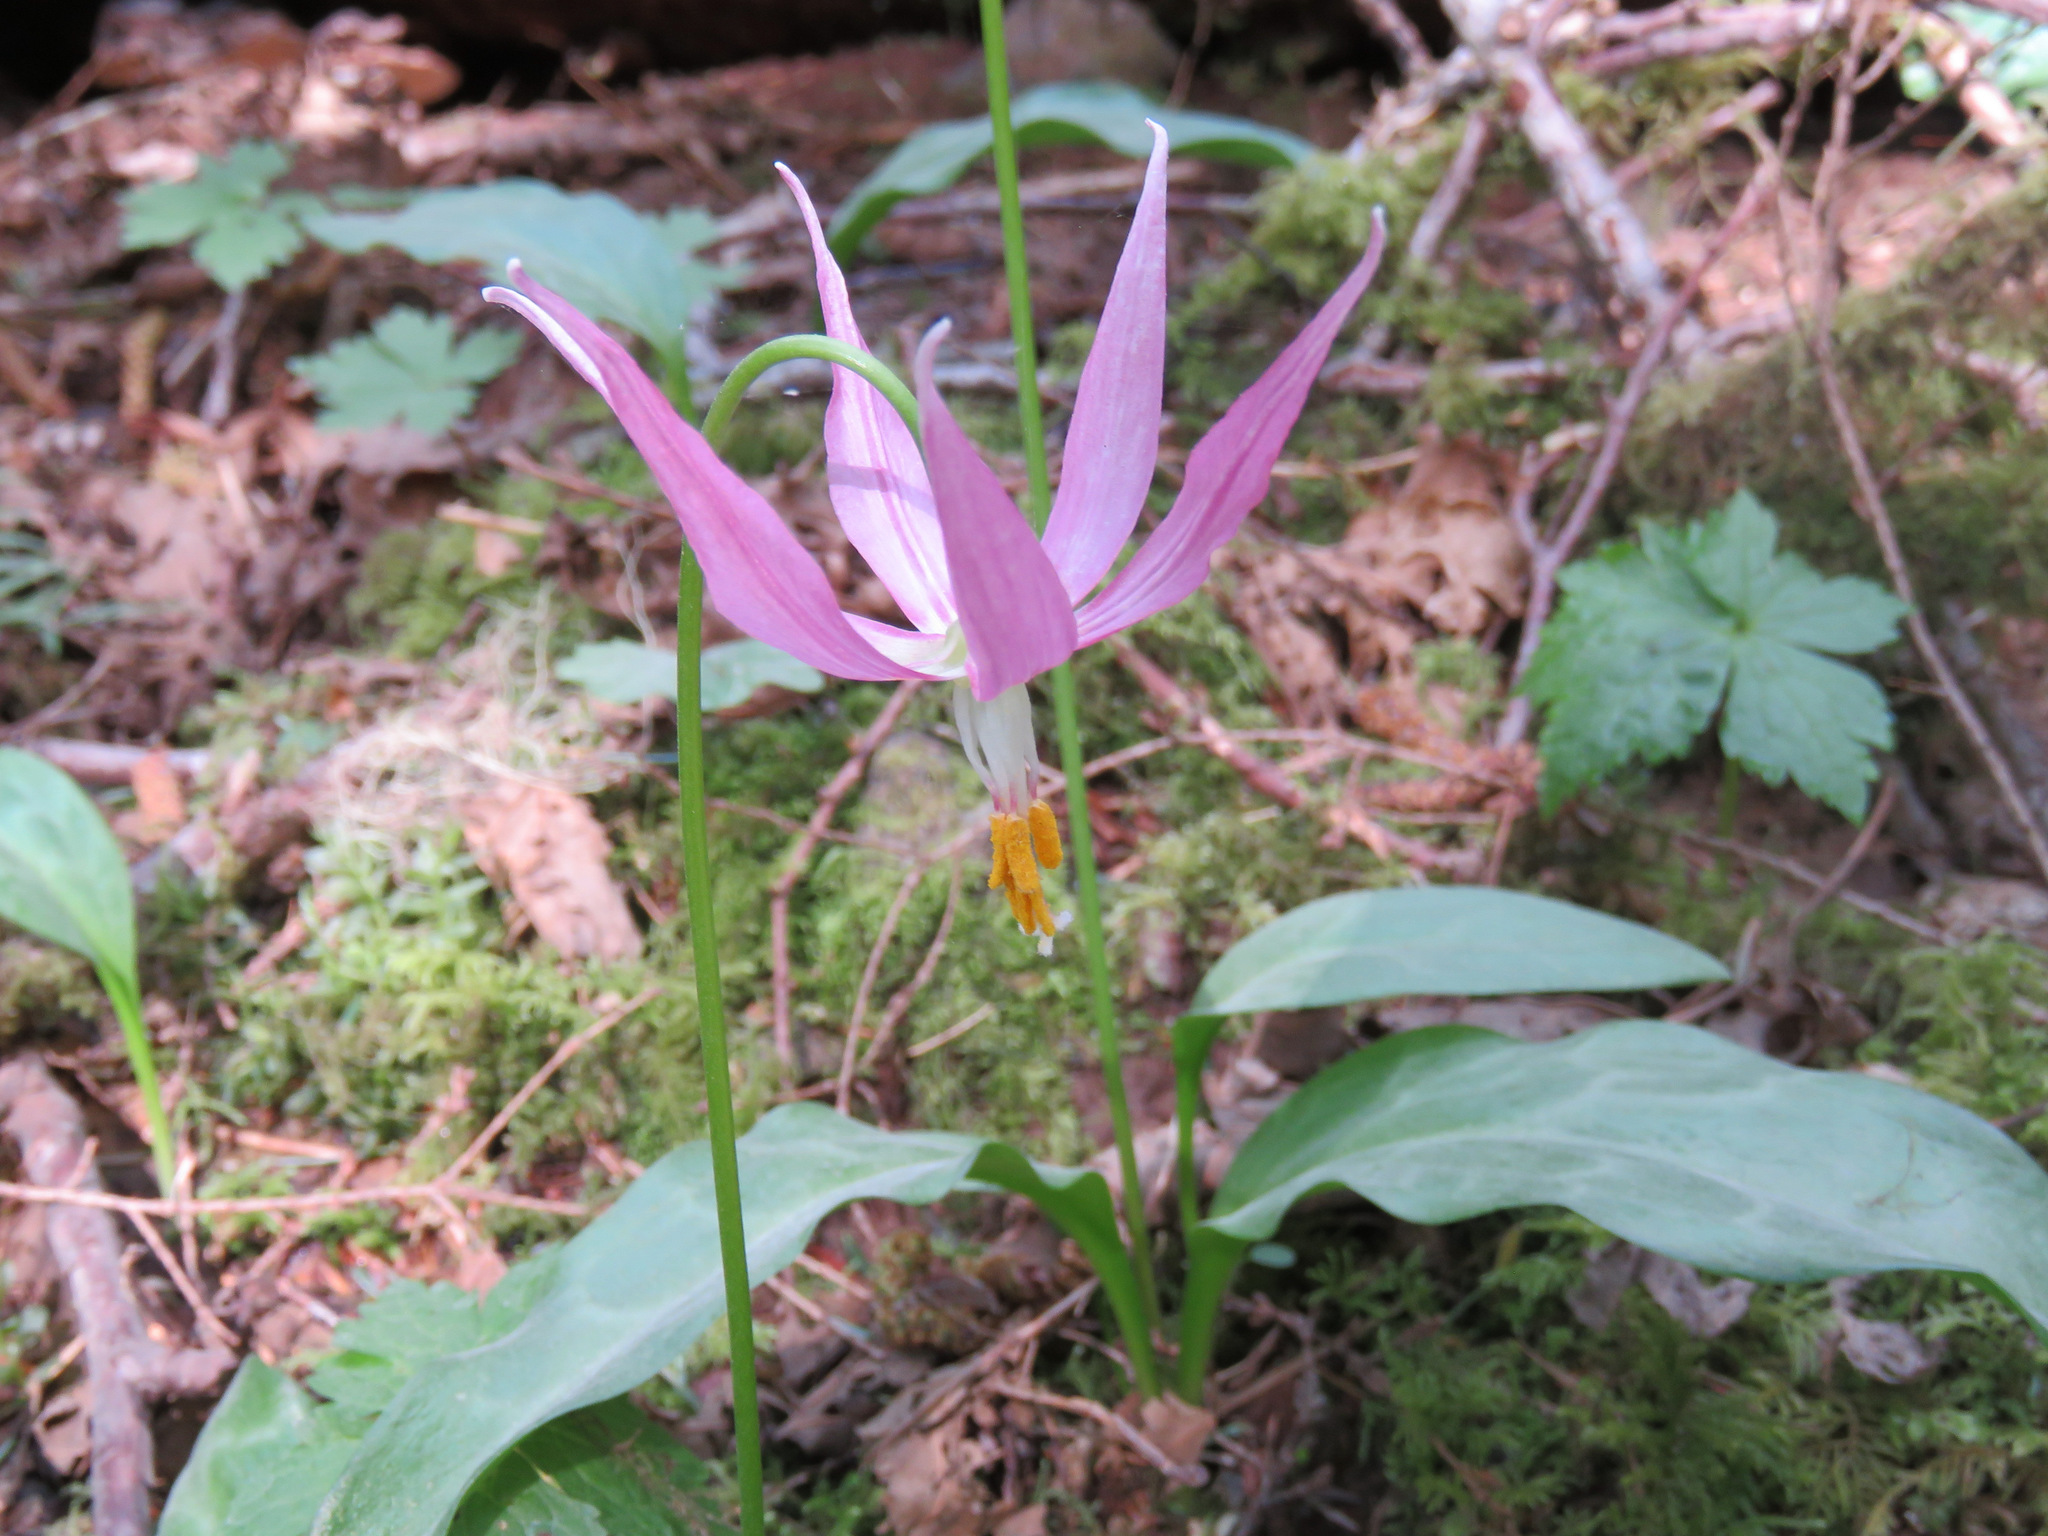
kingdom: Plantae
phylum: Tracheophyta
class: Liliopsida
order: Liliales
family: Liliaceae
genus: Erythronium
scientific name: Erythronium revolutum
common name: Pink fawn-lily
